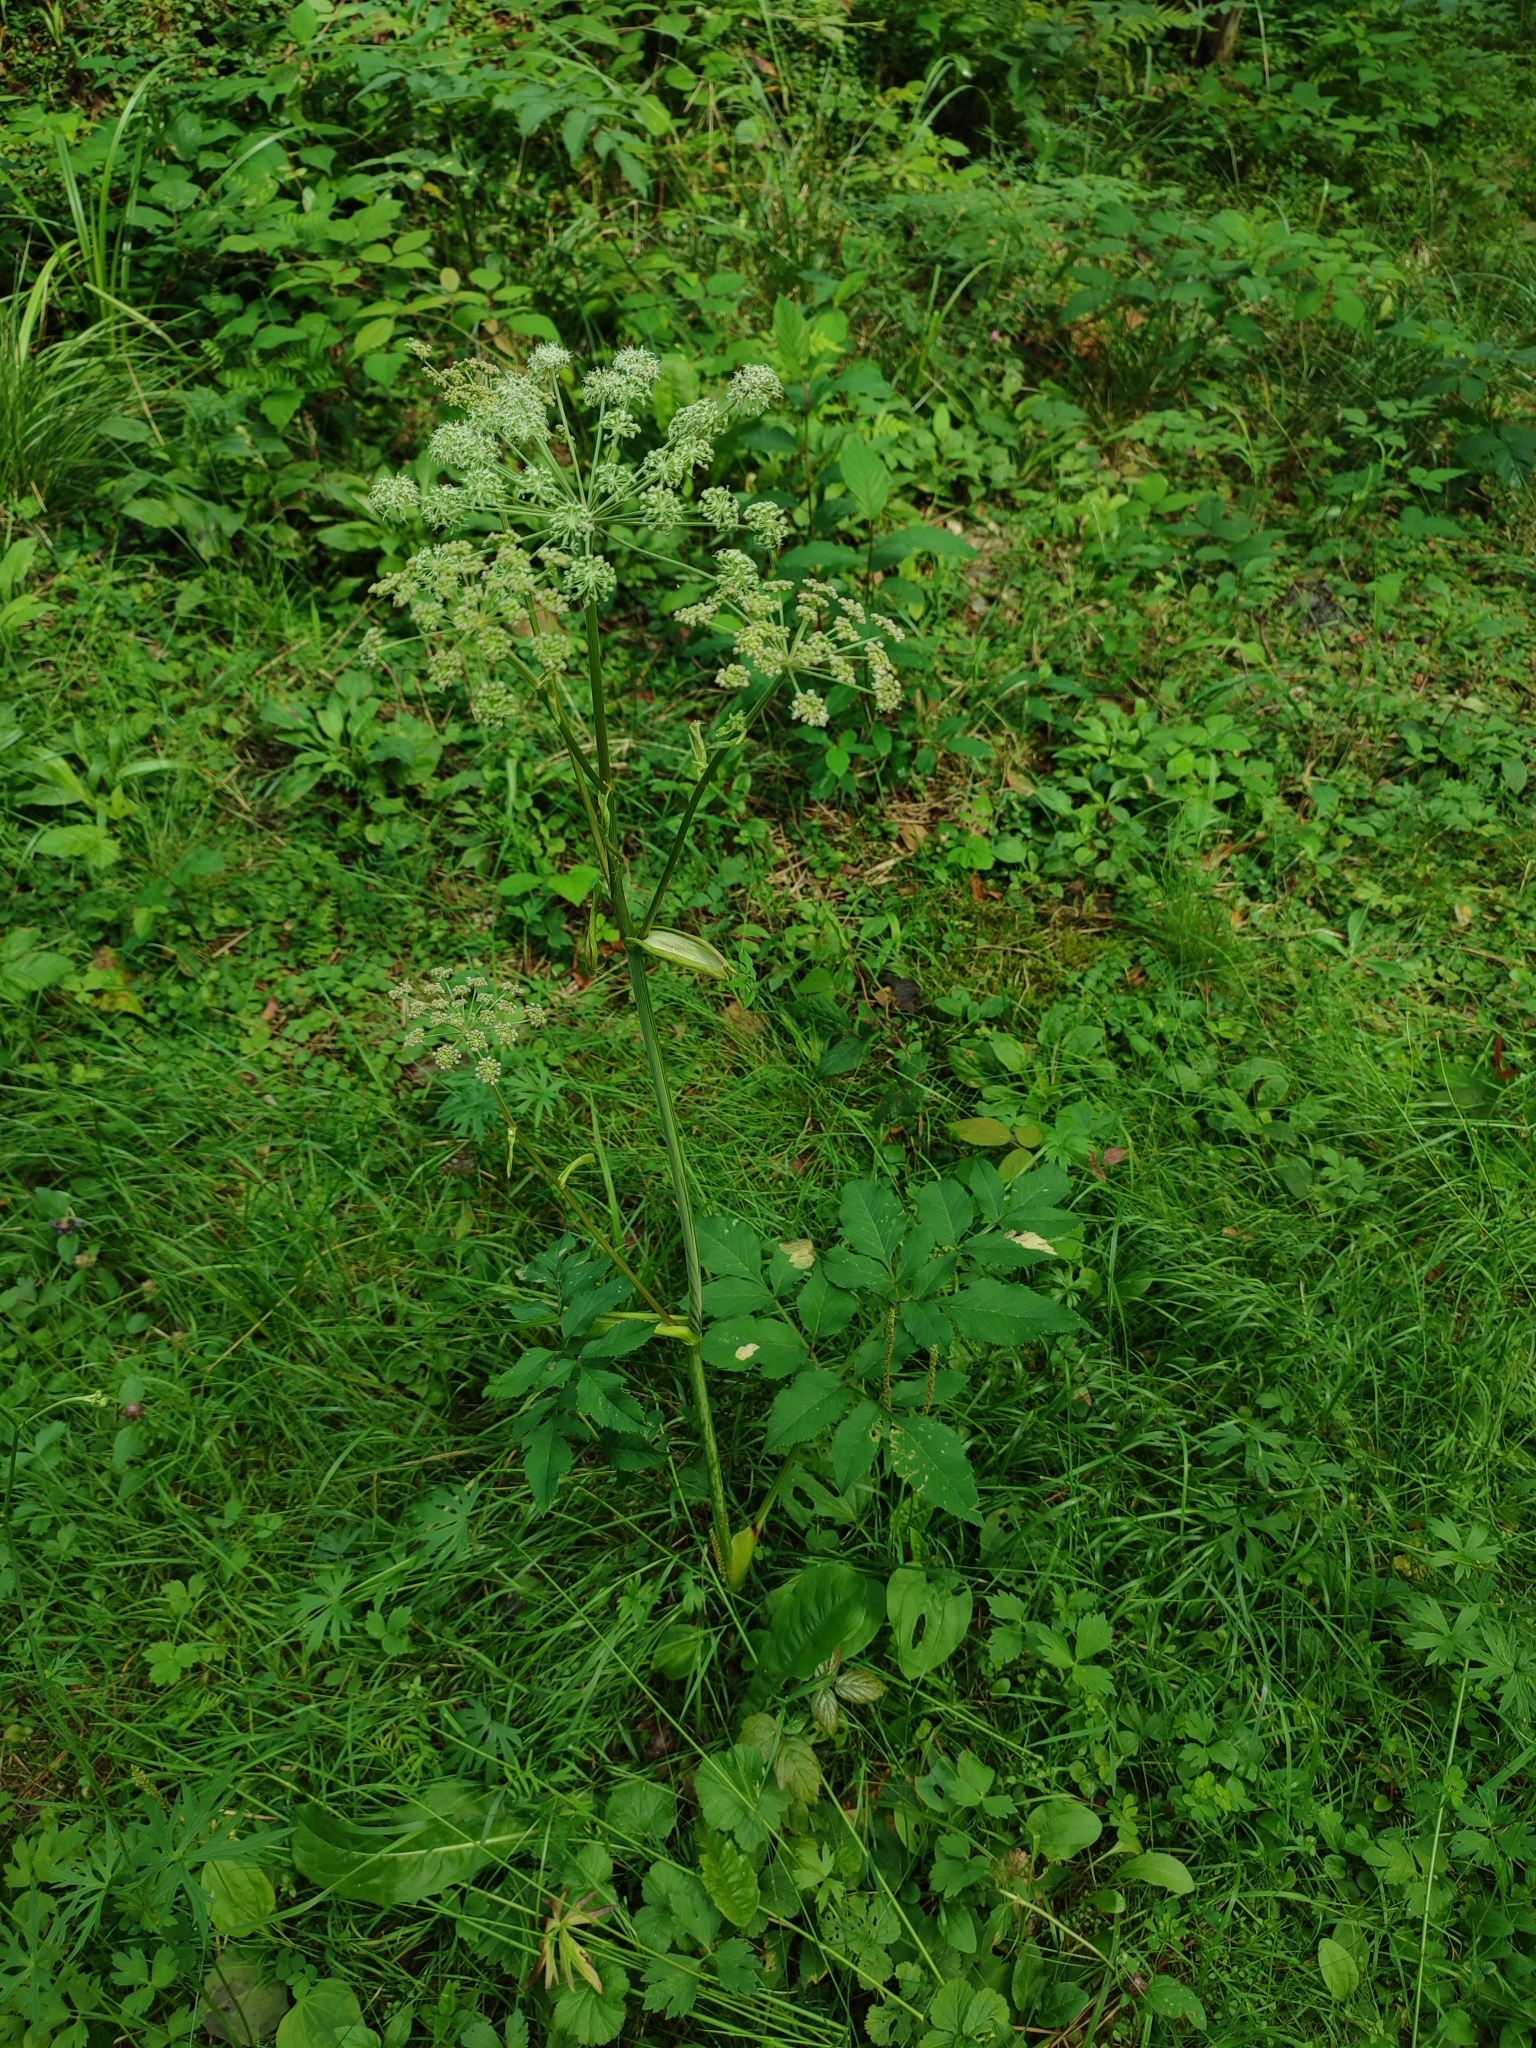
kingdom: Plantae
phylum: Tracheophyta
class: Magnoliopsida
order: Apiales
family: Apiaceae
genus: Angelica
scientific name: Angelica sylvestris
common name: Wild angelica
